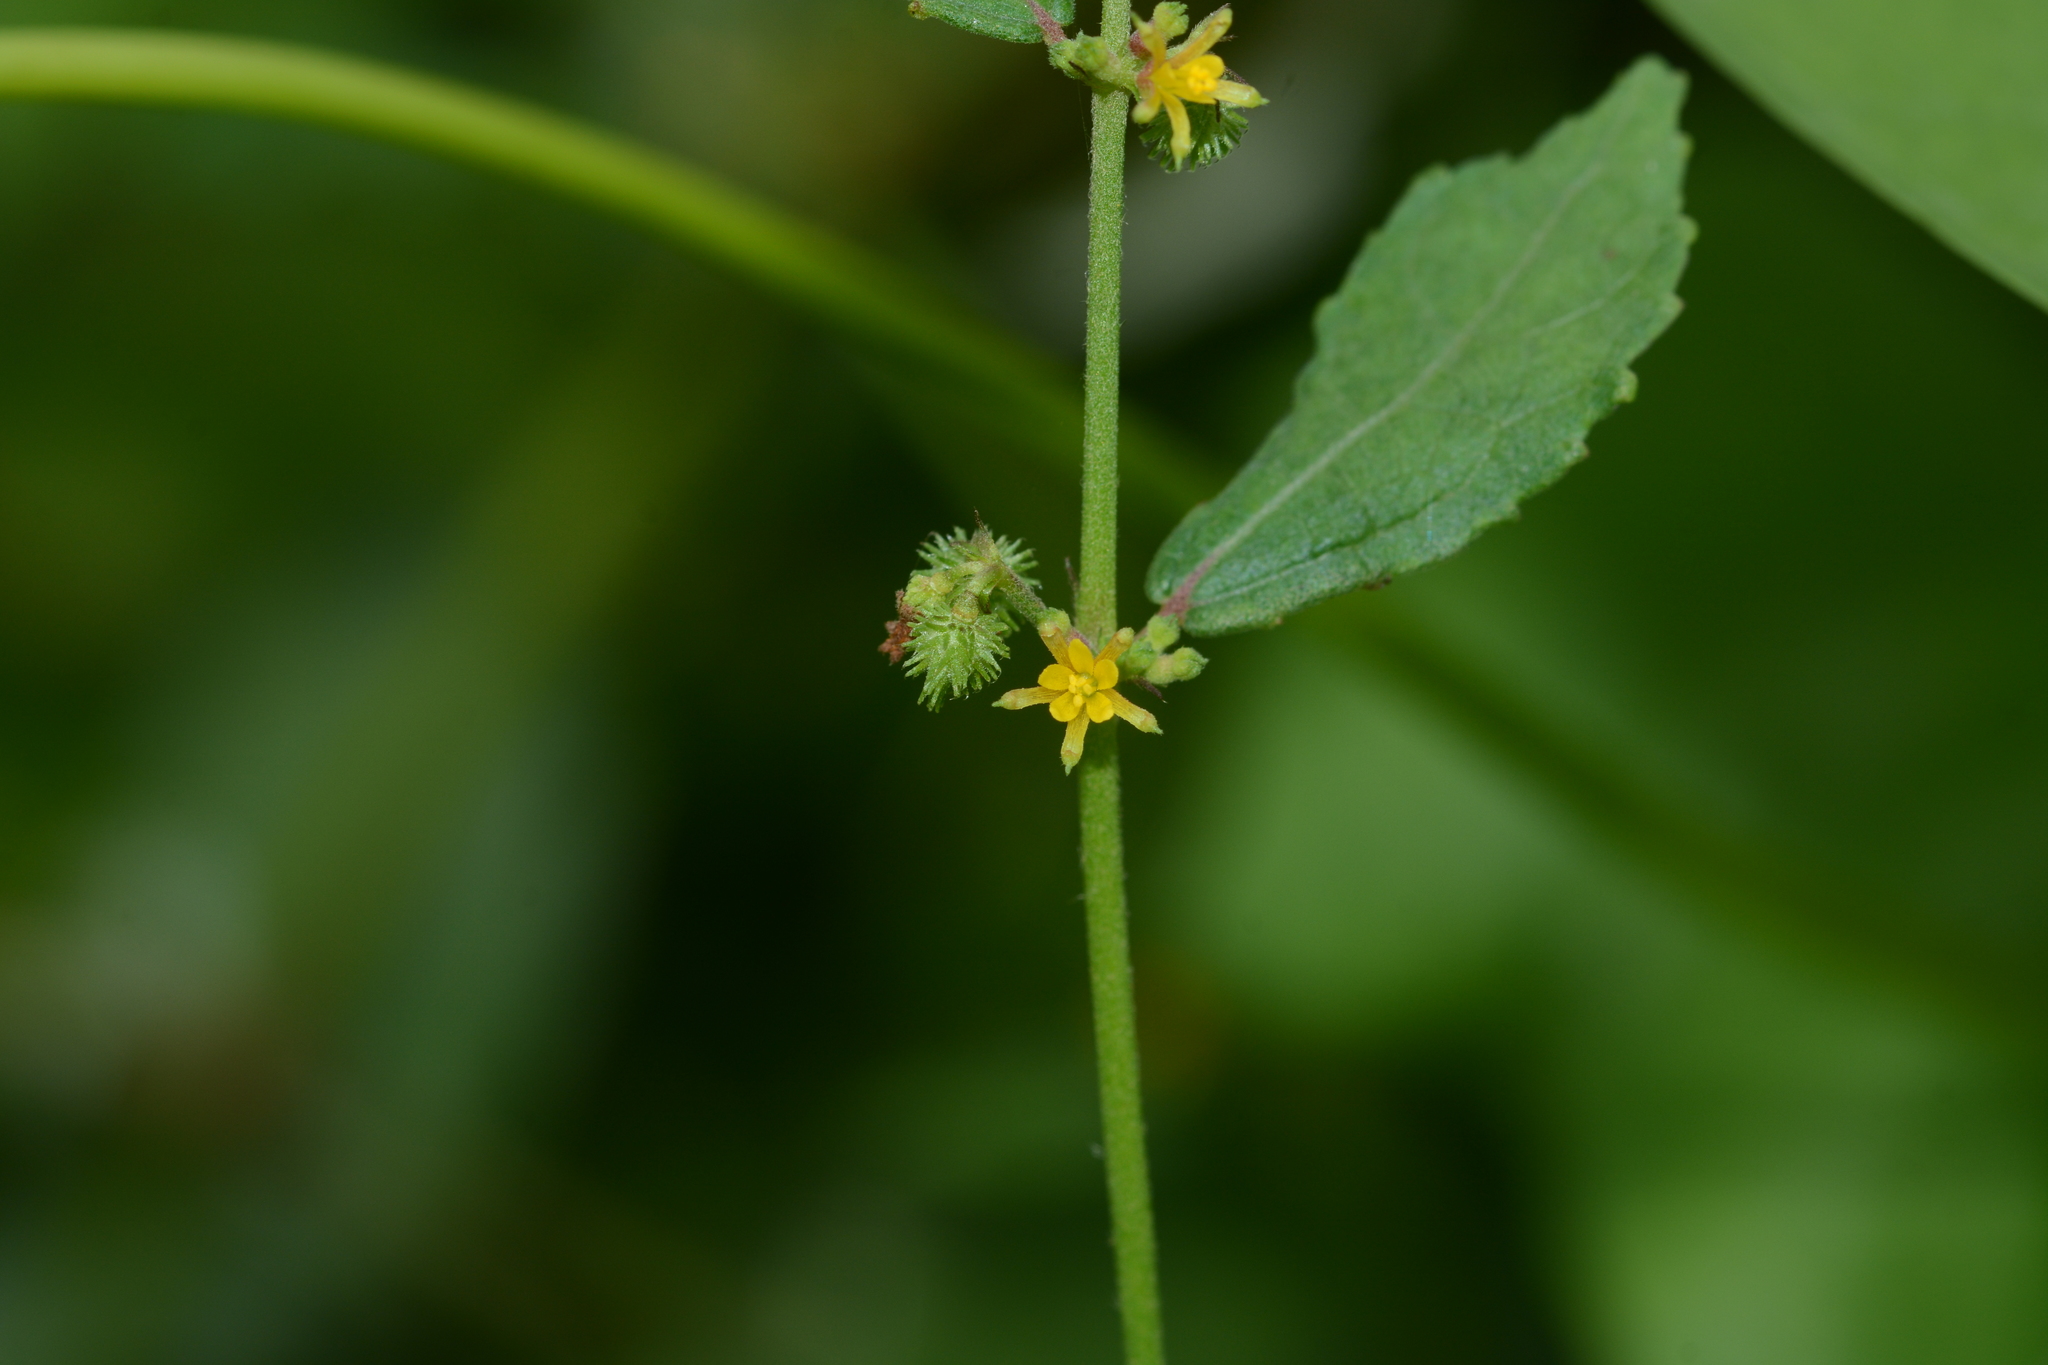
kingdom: Plantae
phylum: Tracheophyta
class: Magnoliopsida
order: Malvales
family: Malvaceae
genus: Triumfetta
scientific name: Triumfetta pentandra
